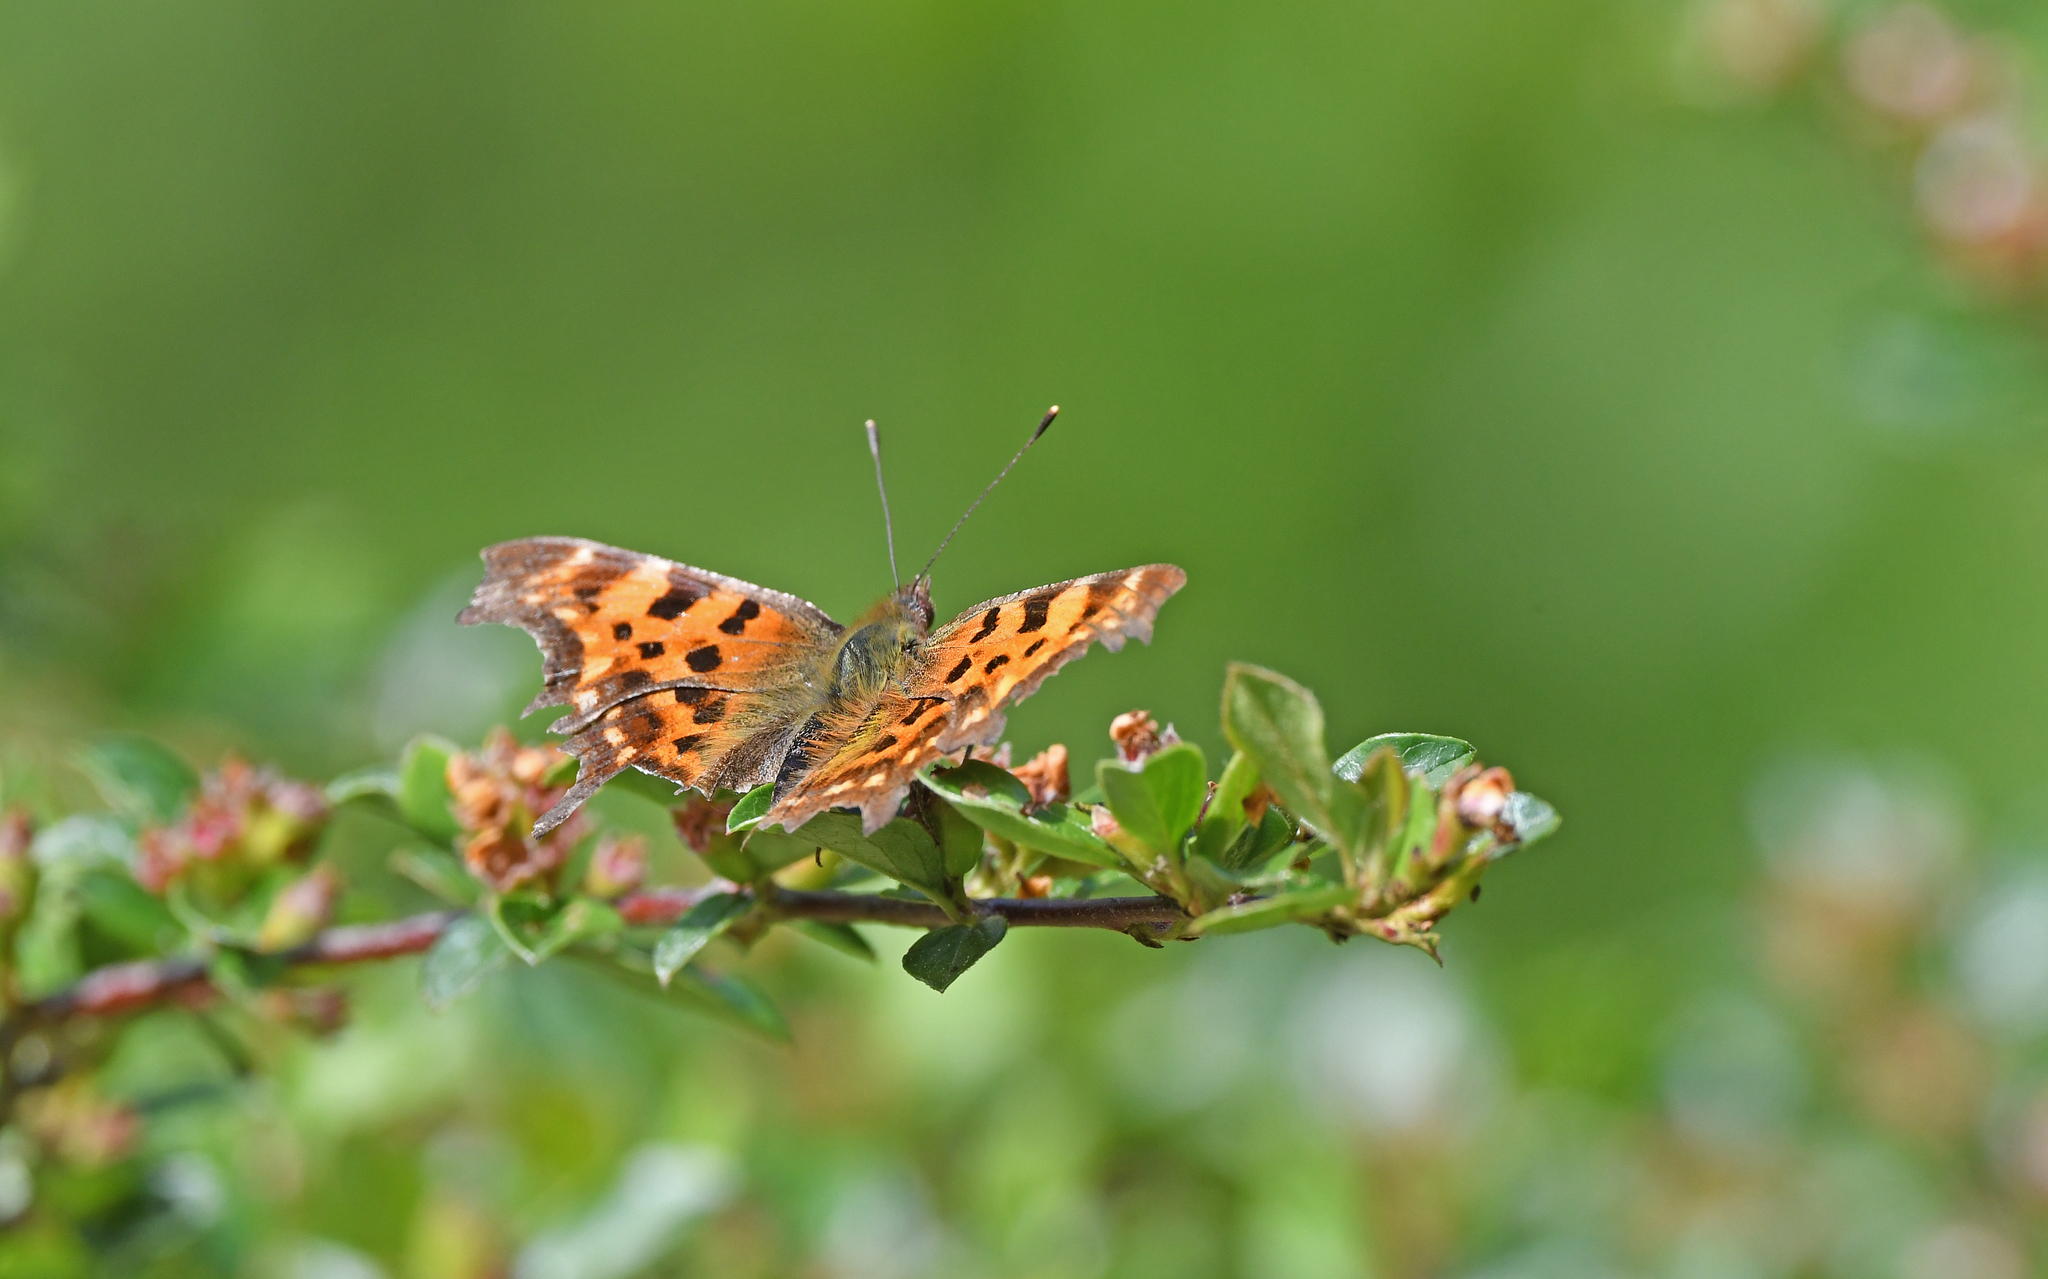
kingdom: Animalia
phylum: Arthropoda
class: Insecta
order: Lepidoptera
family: Nymphalidae
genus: Polygonia
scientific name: Polygonia c-album
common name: Comma
